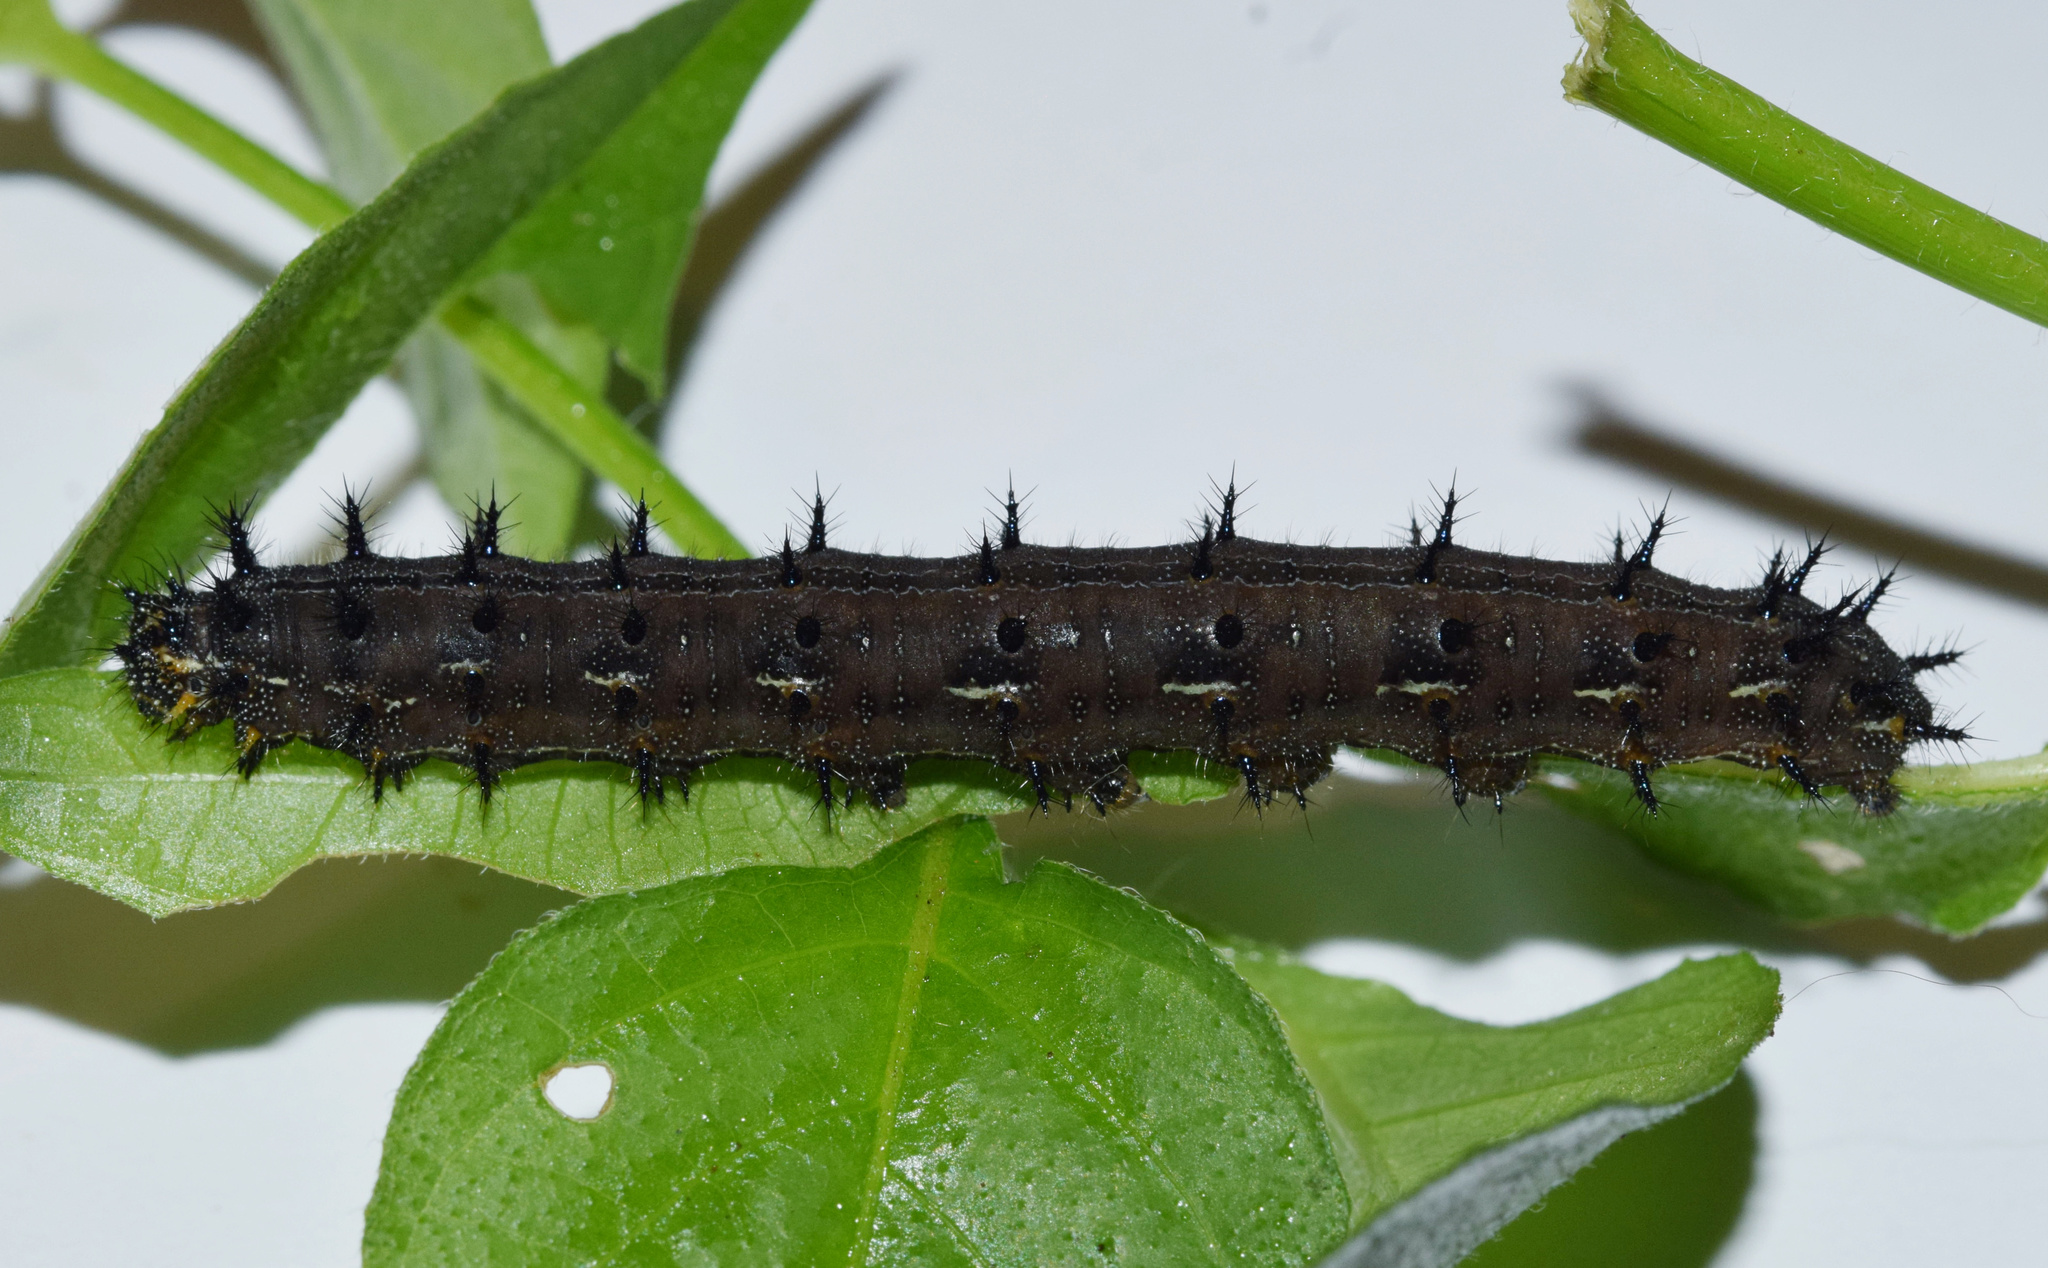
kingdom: Animalia
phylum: Arthropoda
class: Insecta
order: Lepidoptera
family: Nymphalidae
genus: Junonia
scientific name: Junonia oenone
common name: Dark blue pansy
